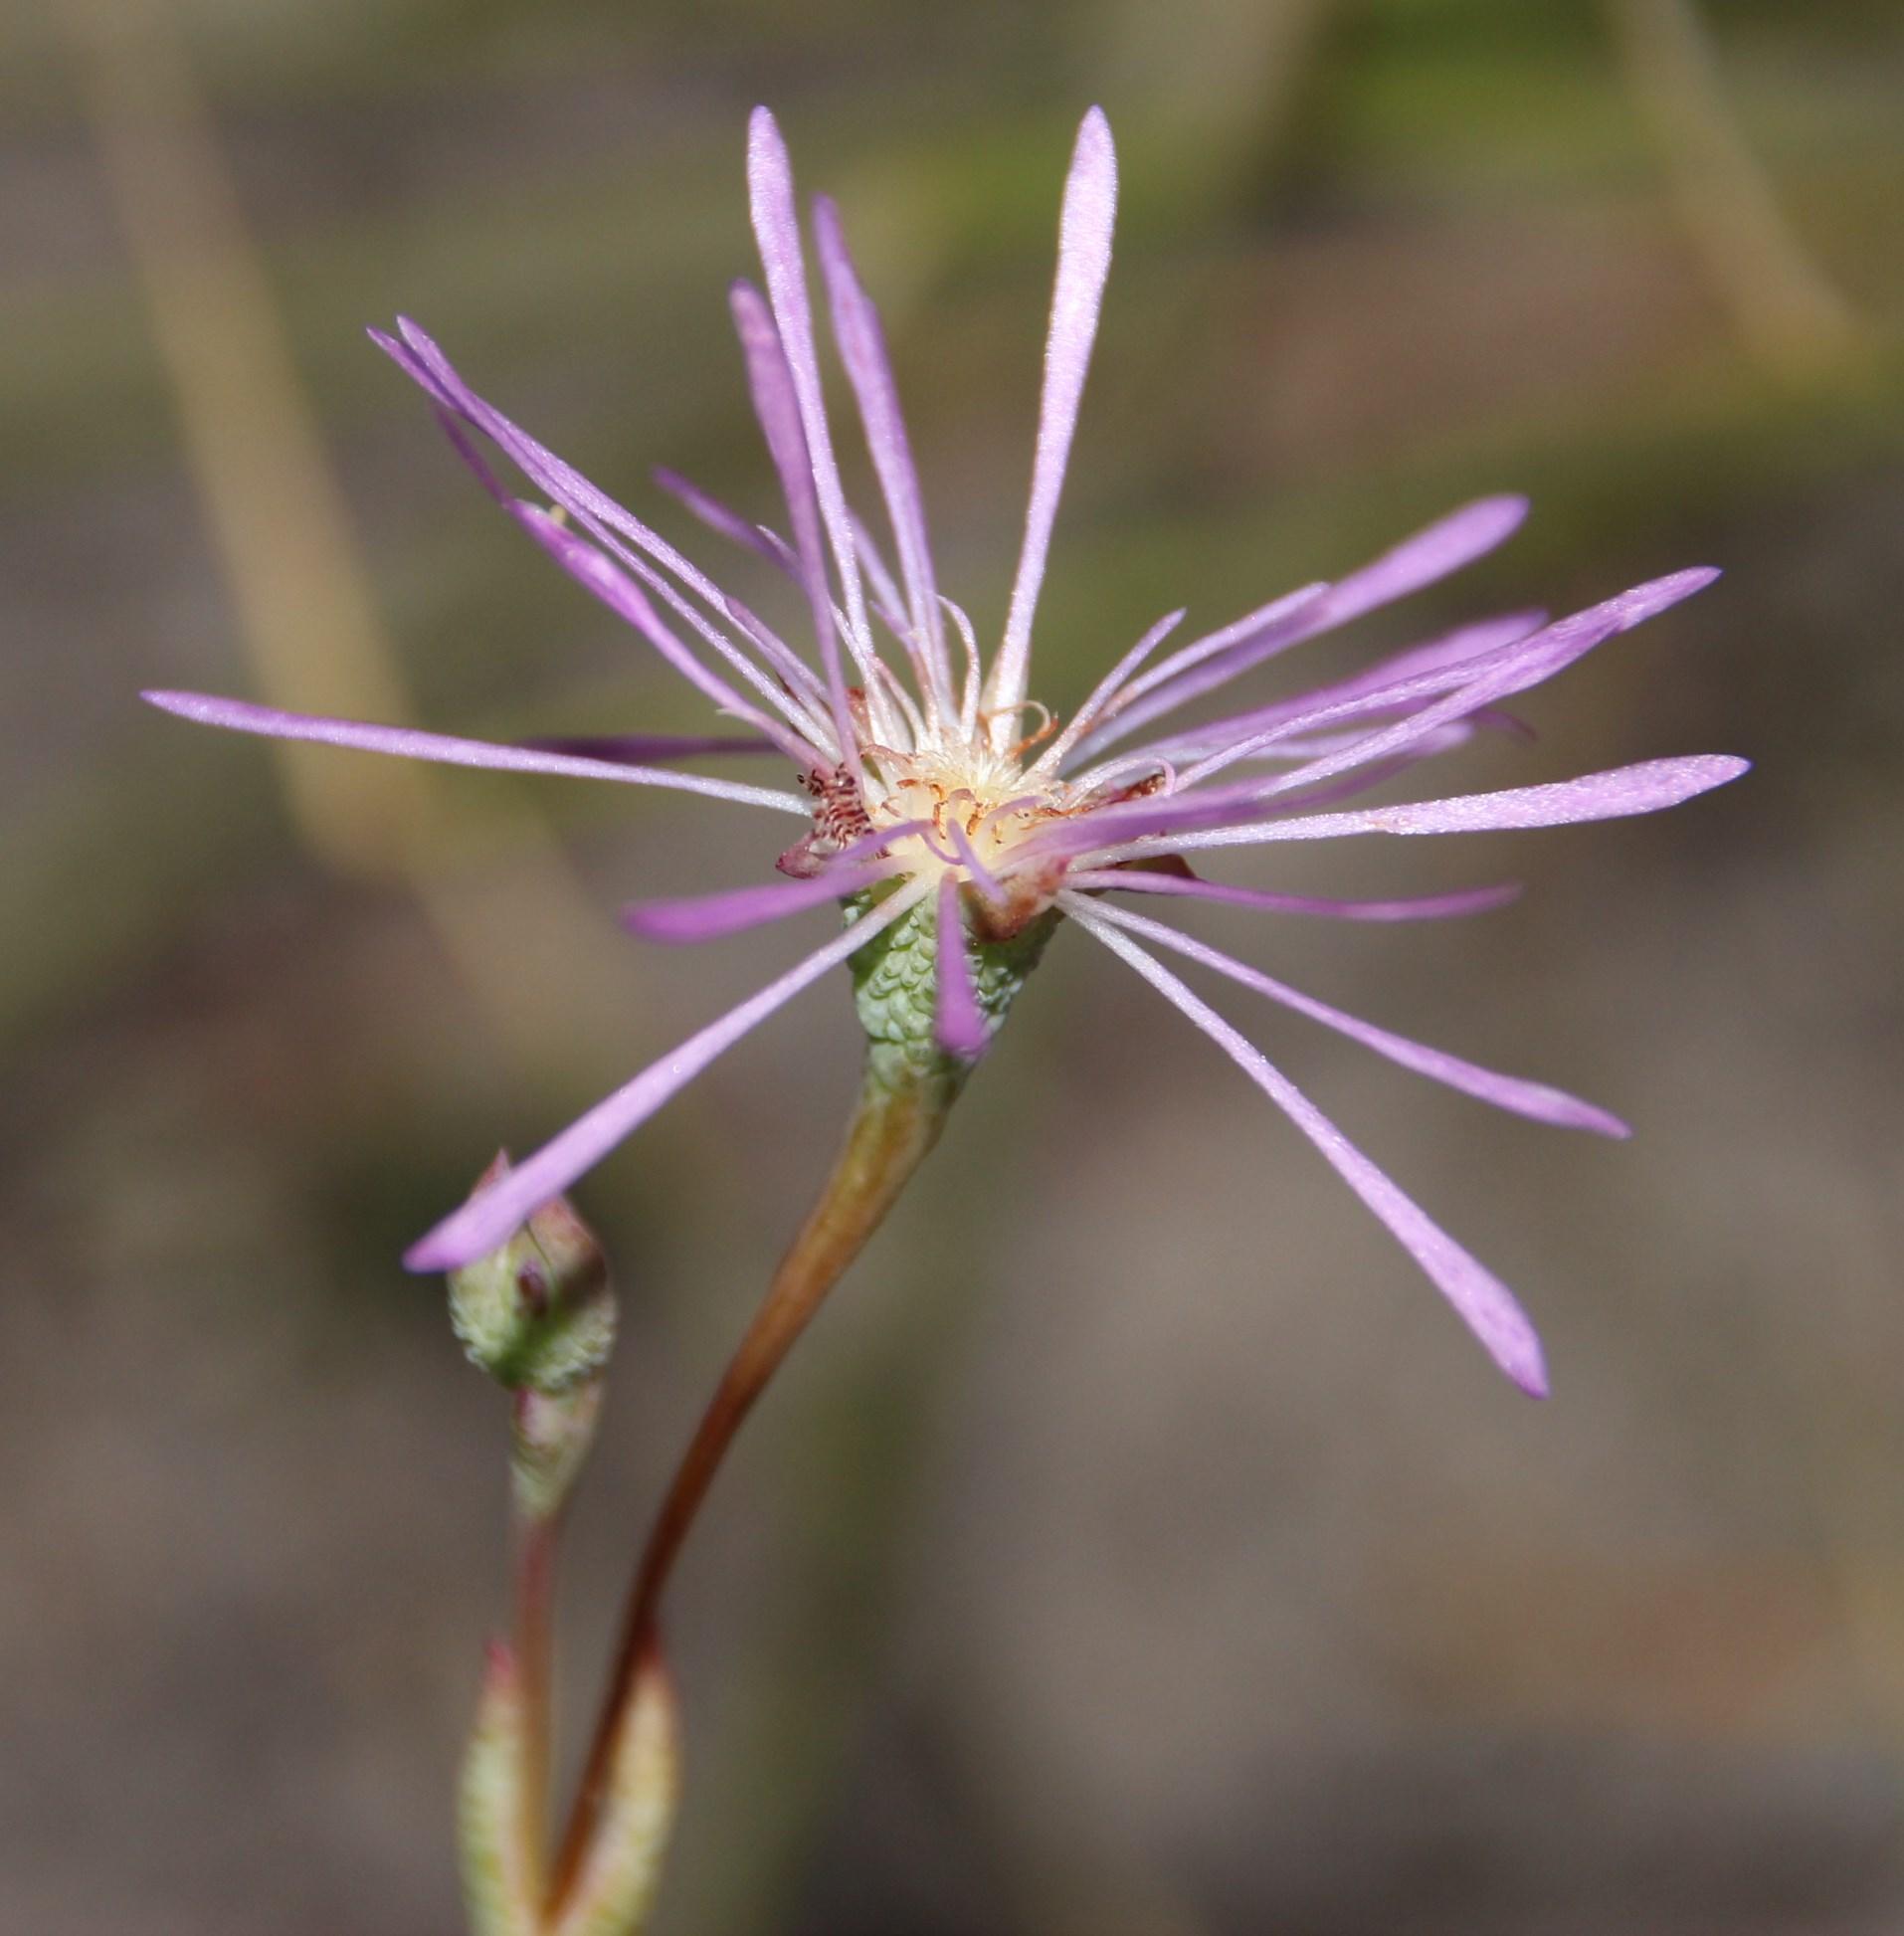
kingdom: Plantae
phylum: Tracheophyta
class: Magnoliopsida
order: Caryophyllales
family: Aizoaceae
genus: Erepsia
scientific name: Erepsia aspera
